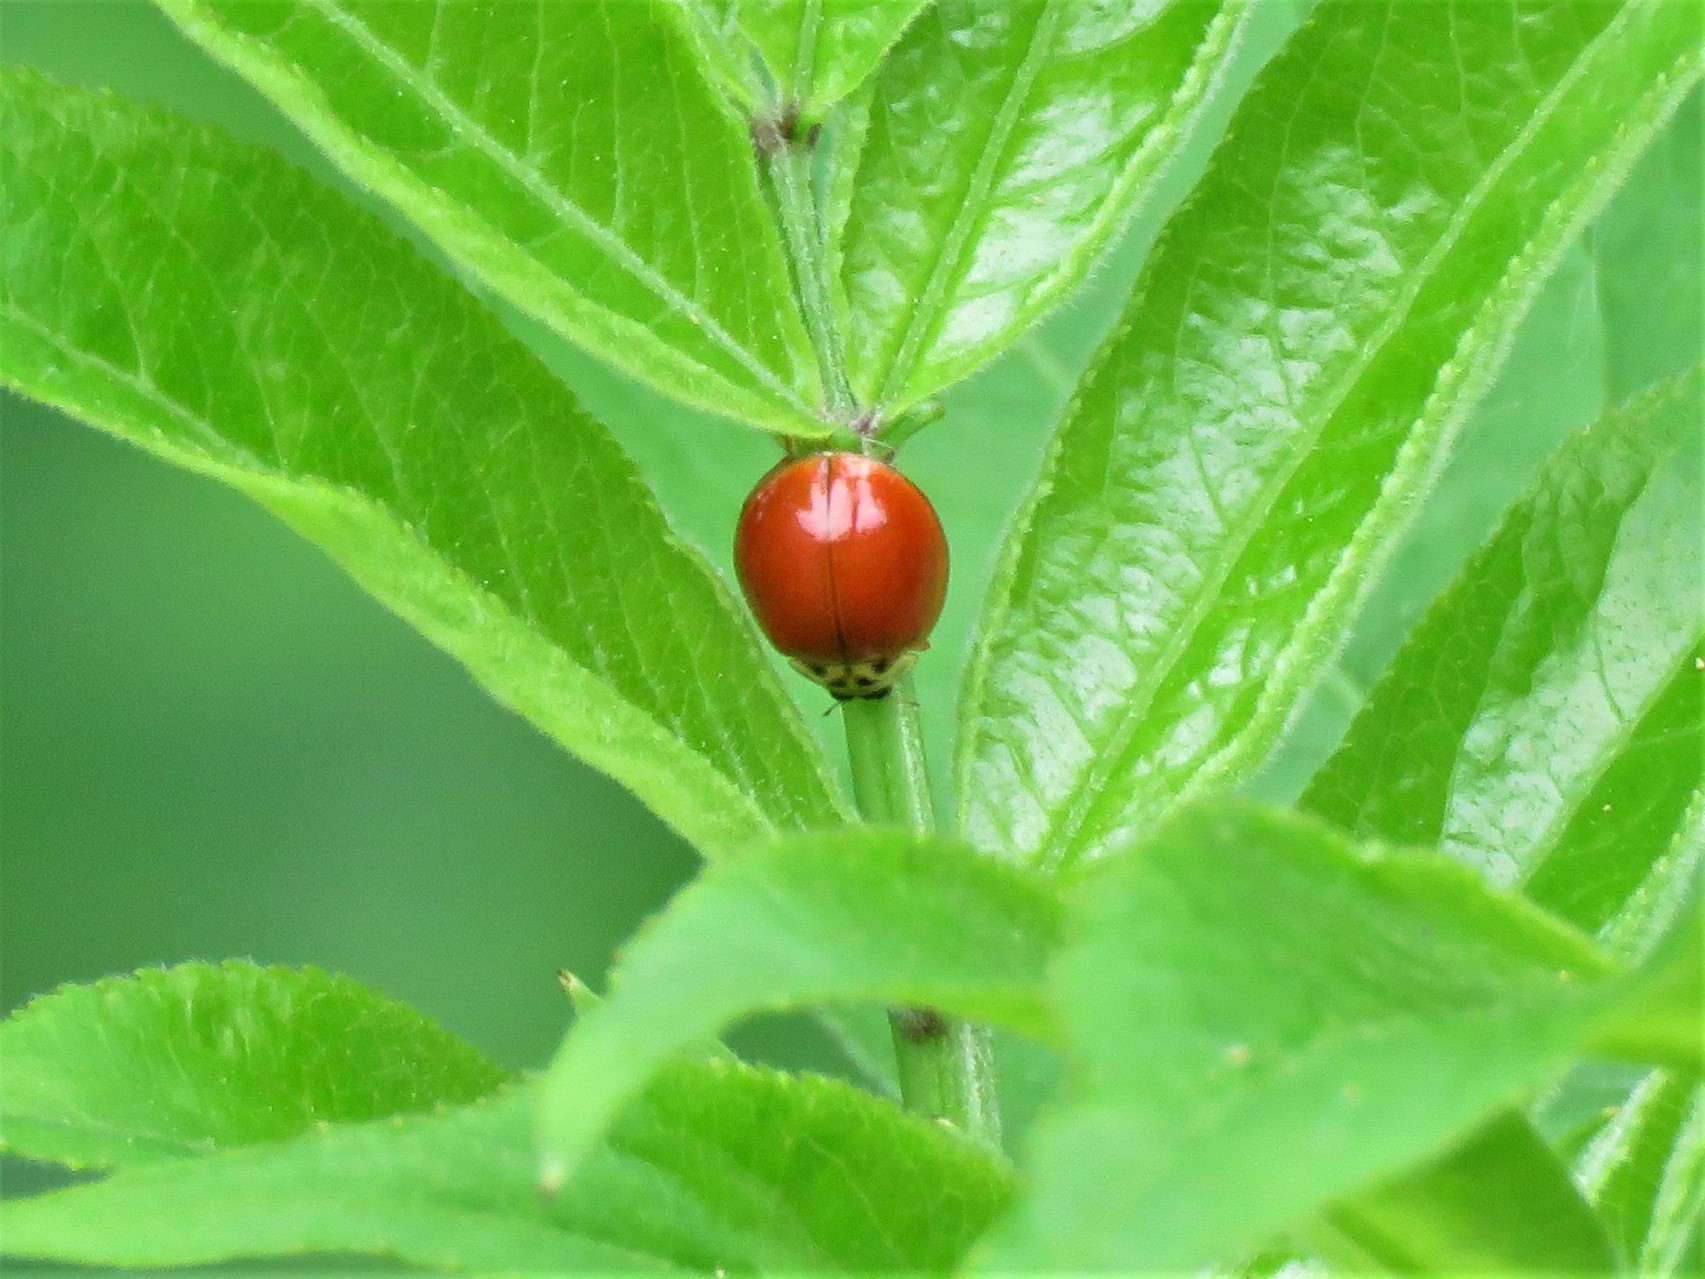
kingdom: Animalia
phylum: Arthropoda
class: Insecta
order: Coleoptera
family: Coccinellidae
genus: Harmonia
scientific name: Harmonia axyridis
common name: Harlequin ladybird
